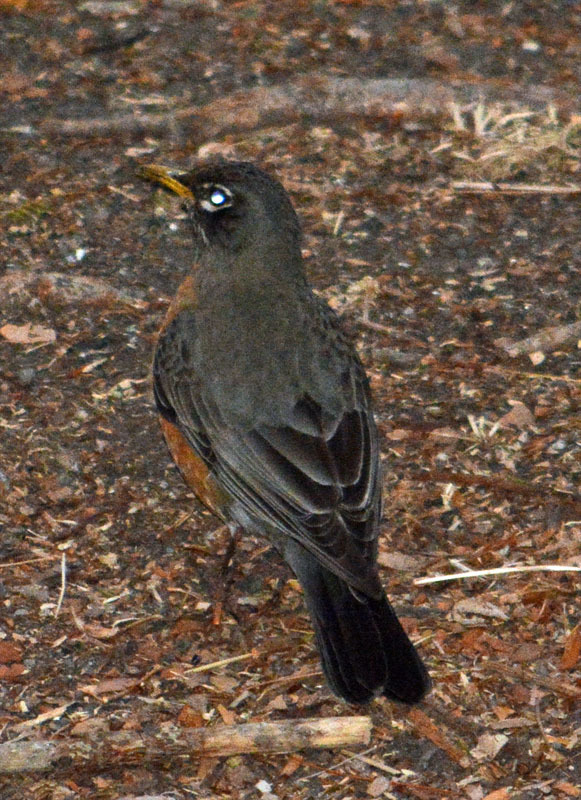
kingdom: Animalia
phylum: Chordata
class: Aves
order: Passeriformes
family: Turdidae
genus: Turdus
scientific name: Turdus migratorius
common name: American robin
